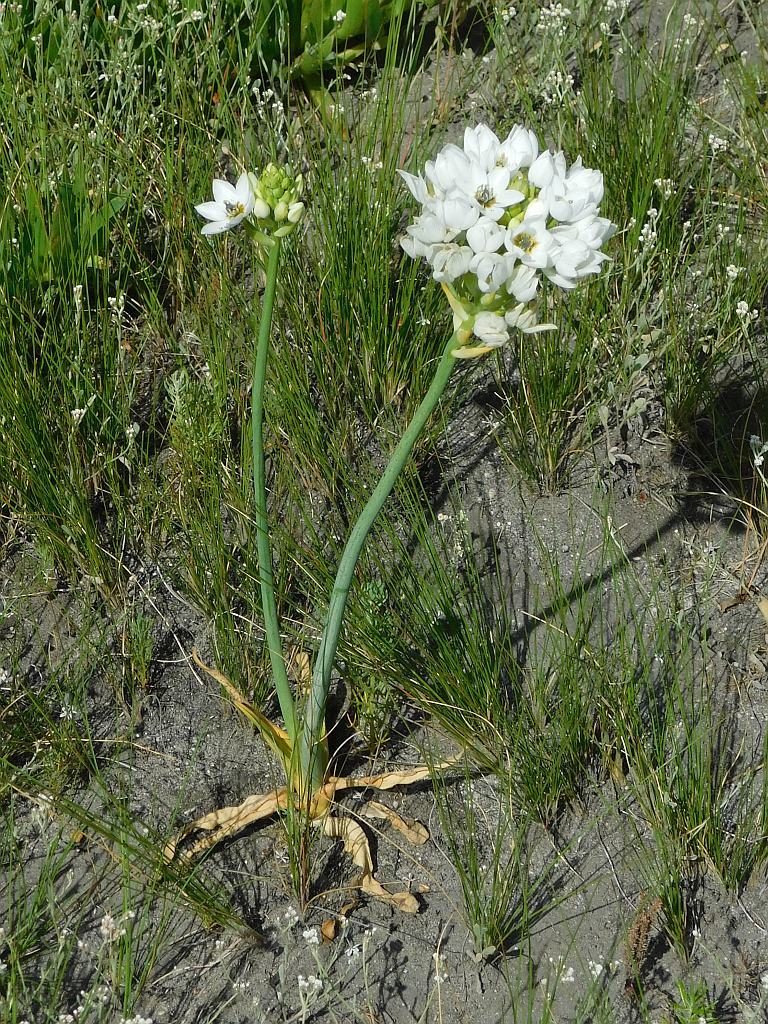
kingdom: Plantae
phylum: Tracheophyta
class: Liliopsida
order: Asparagales
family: Asparagaceae
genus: Ornithogalum
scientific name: Ornithogalum thyrsoides
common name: Chincherinchee
